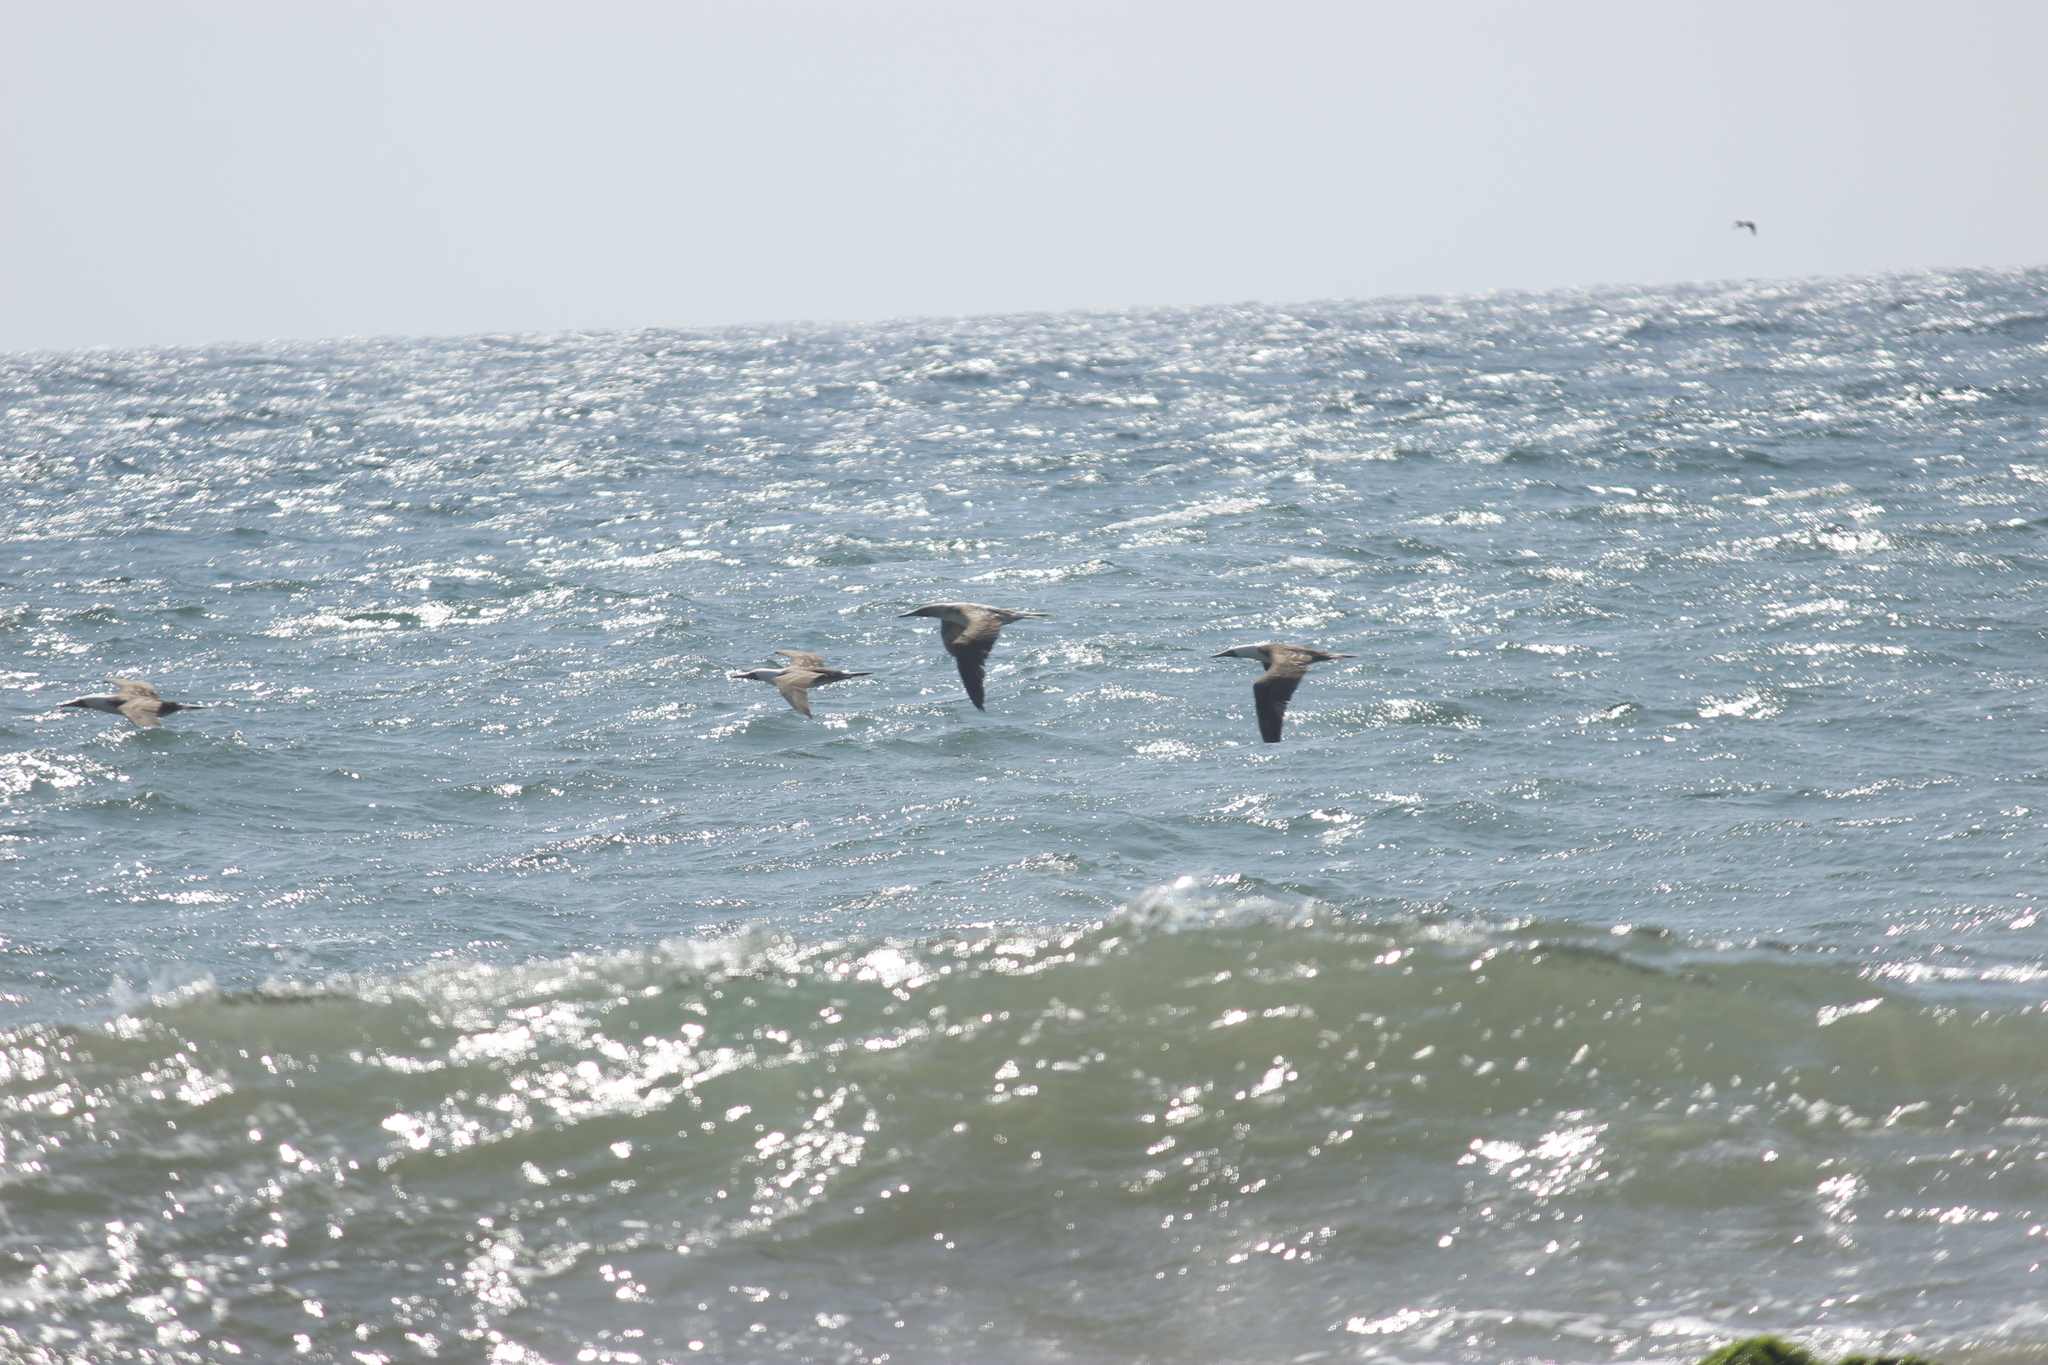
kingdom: Animalia
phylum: Chordata
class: Aves
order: Suliformes
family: Sulidae
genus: Sula
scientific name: Sula variegata
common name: Peruvian booby
